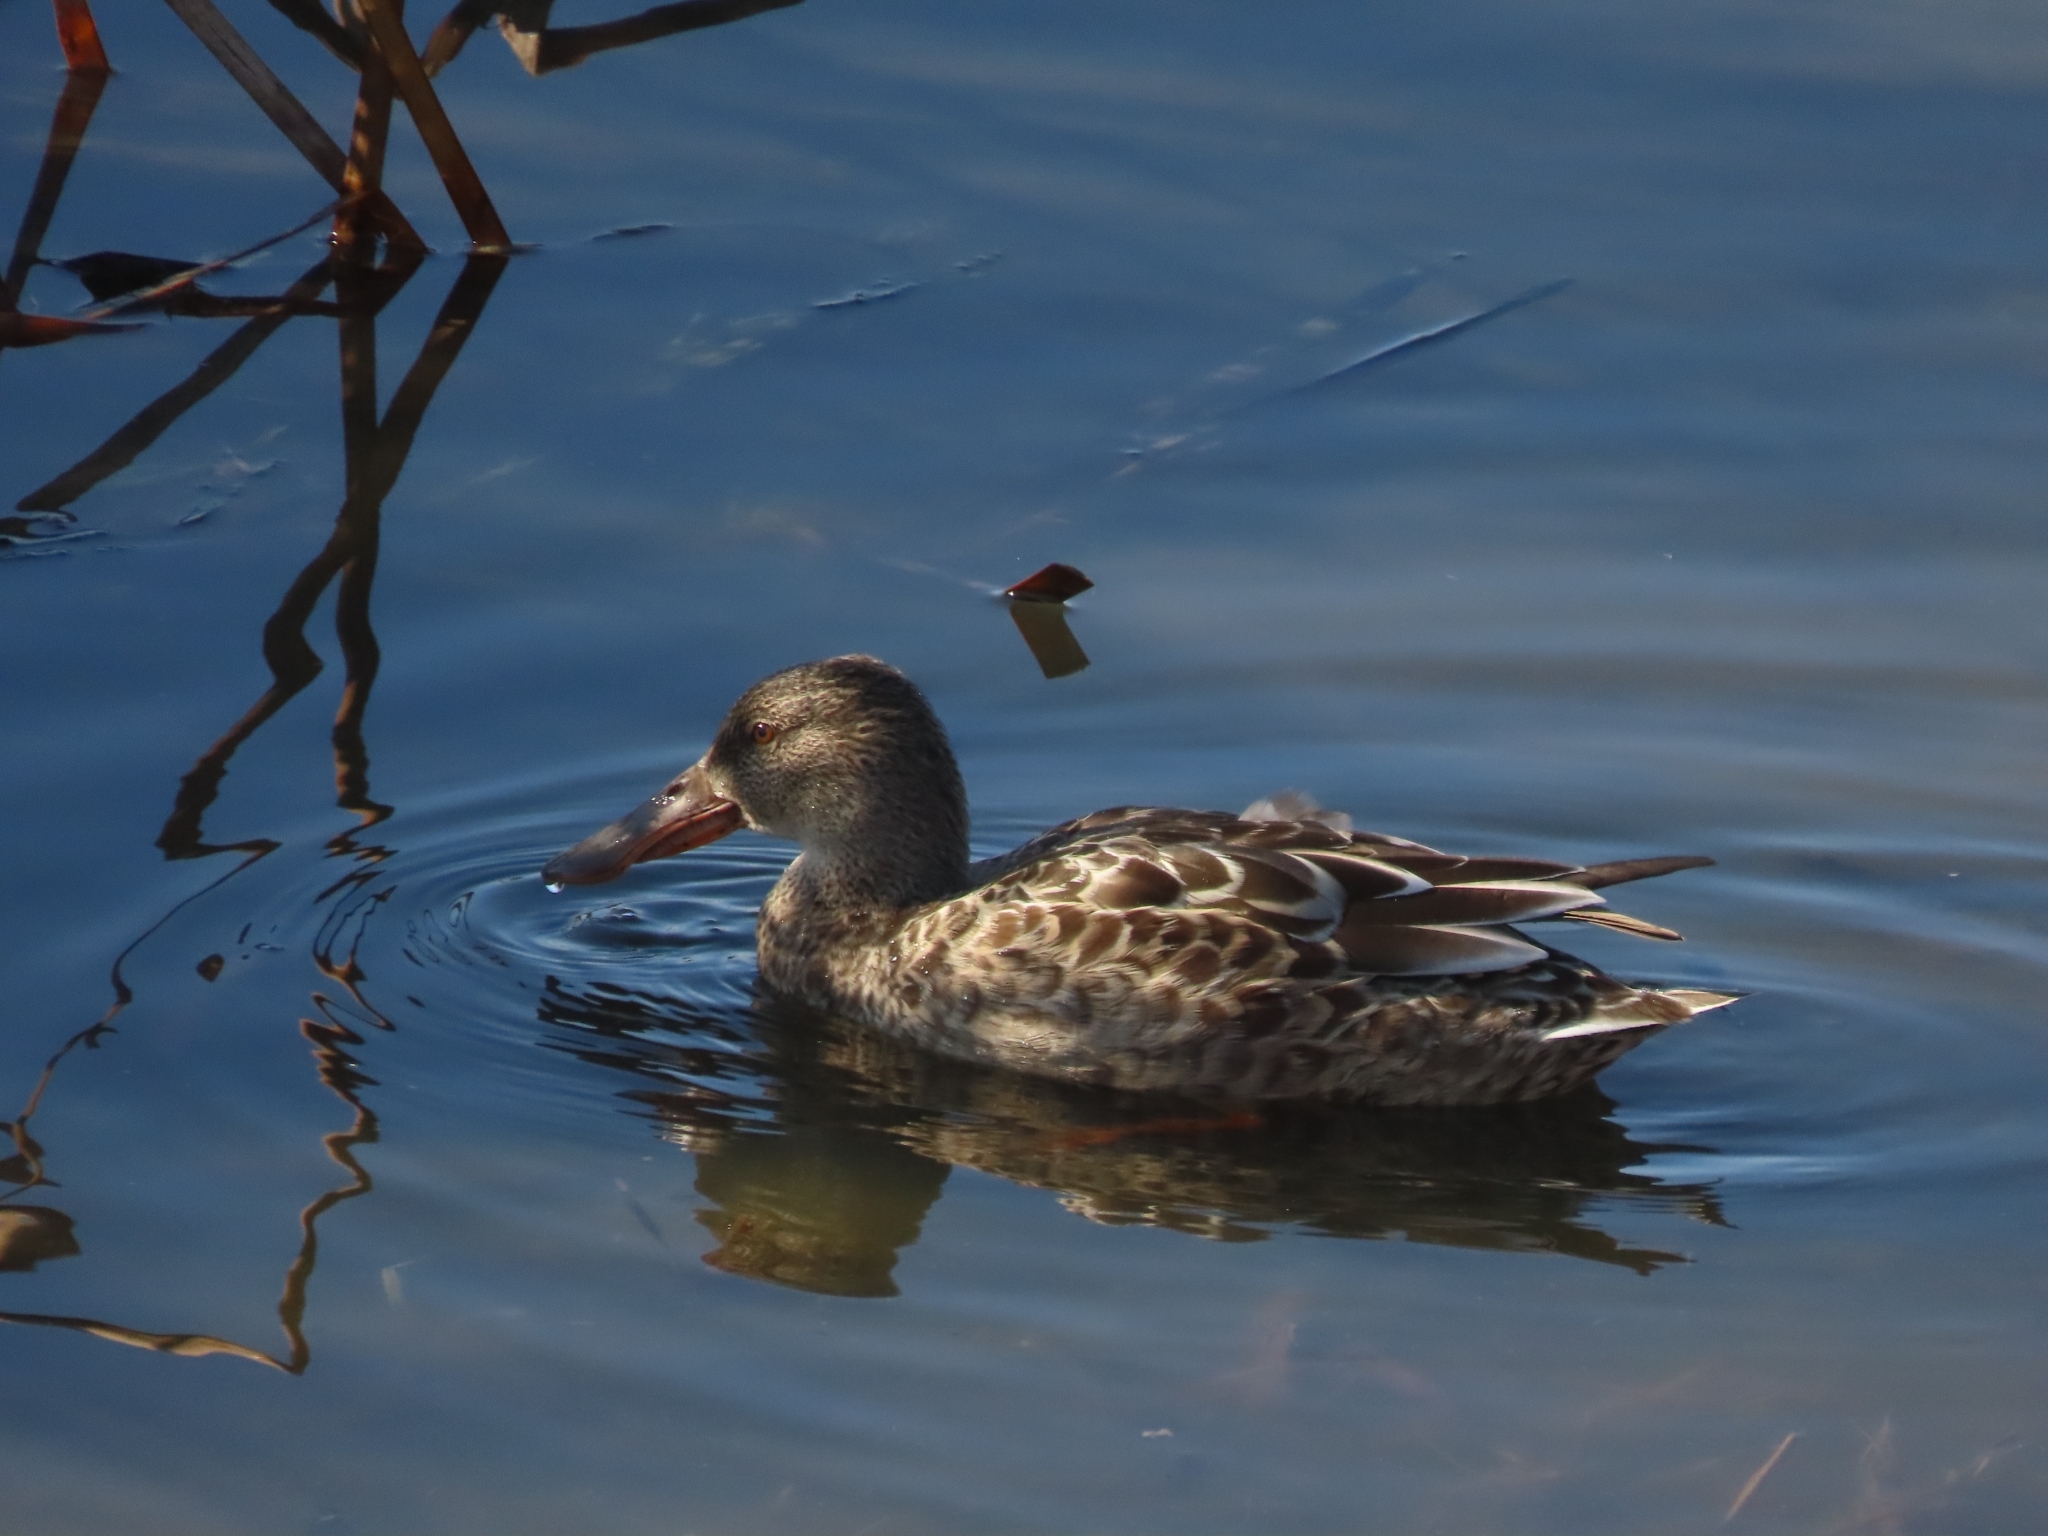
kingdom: Animalia
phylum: Chordata
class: Aves
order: Anseriformes
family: Anatidae
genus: Spatula
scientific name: Spatula clypeata
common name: Northern shoveler
